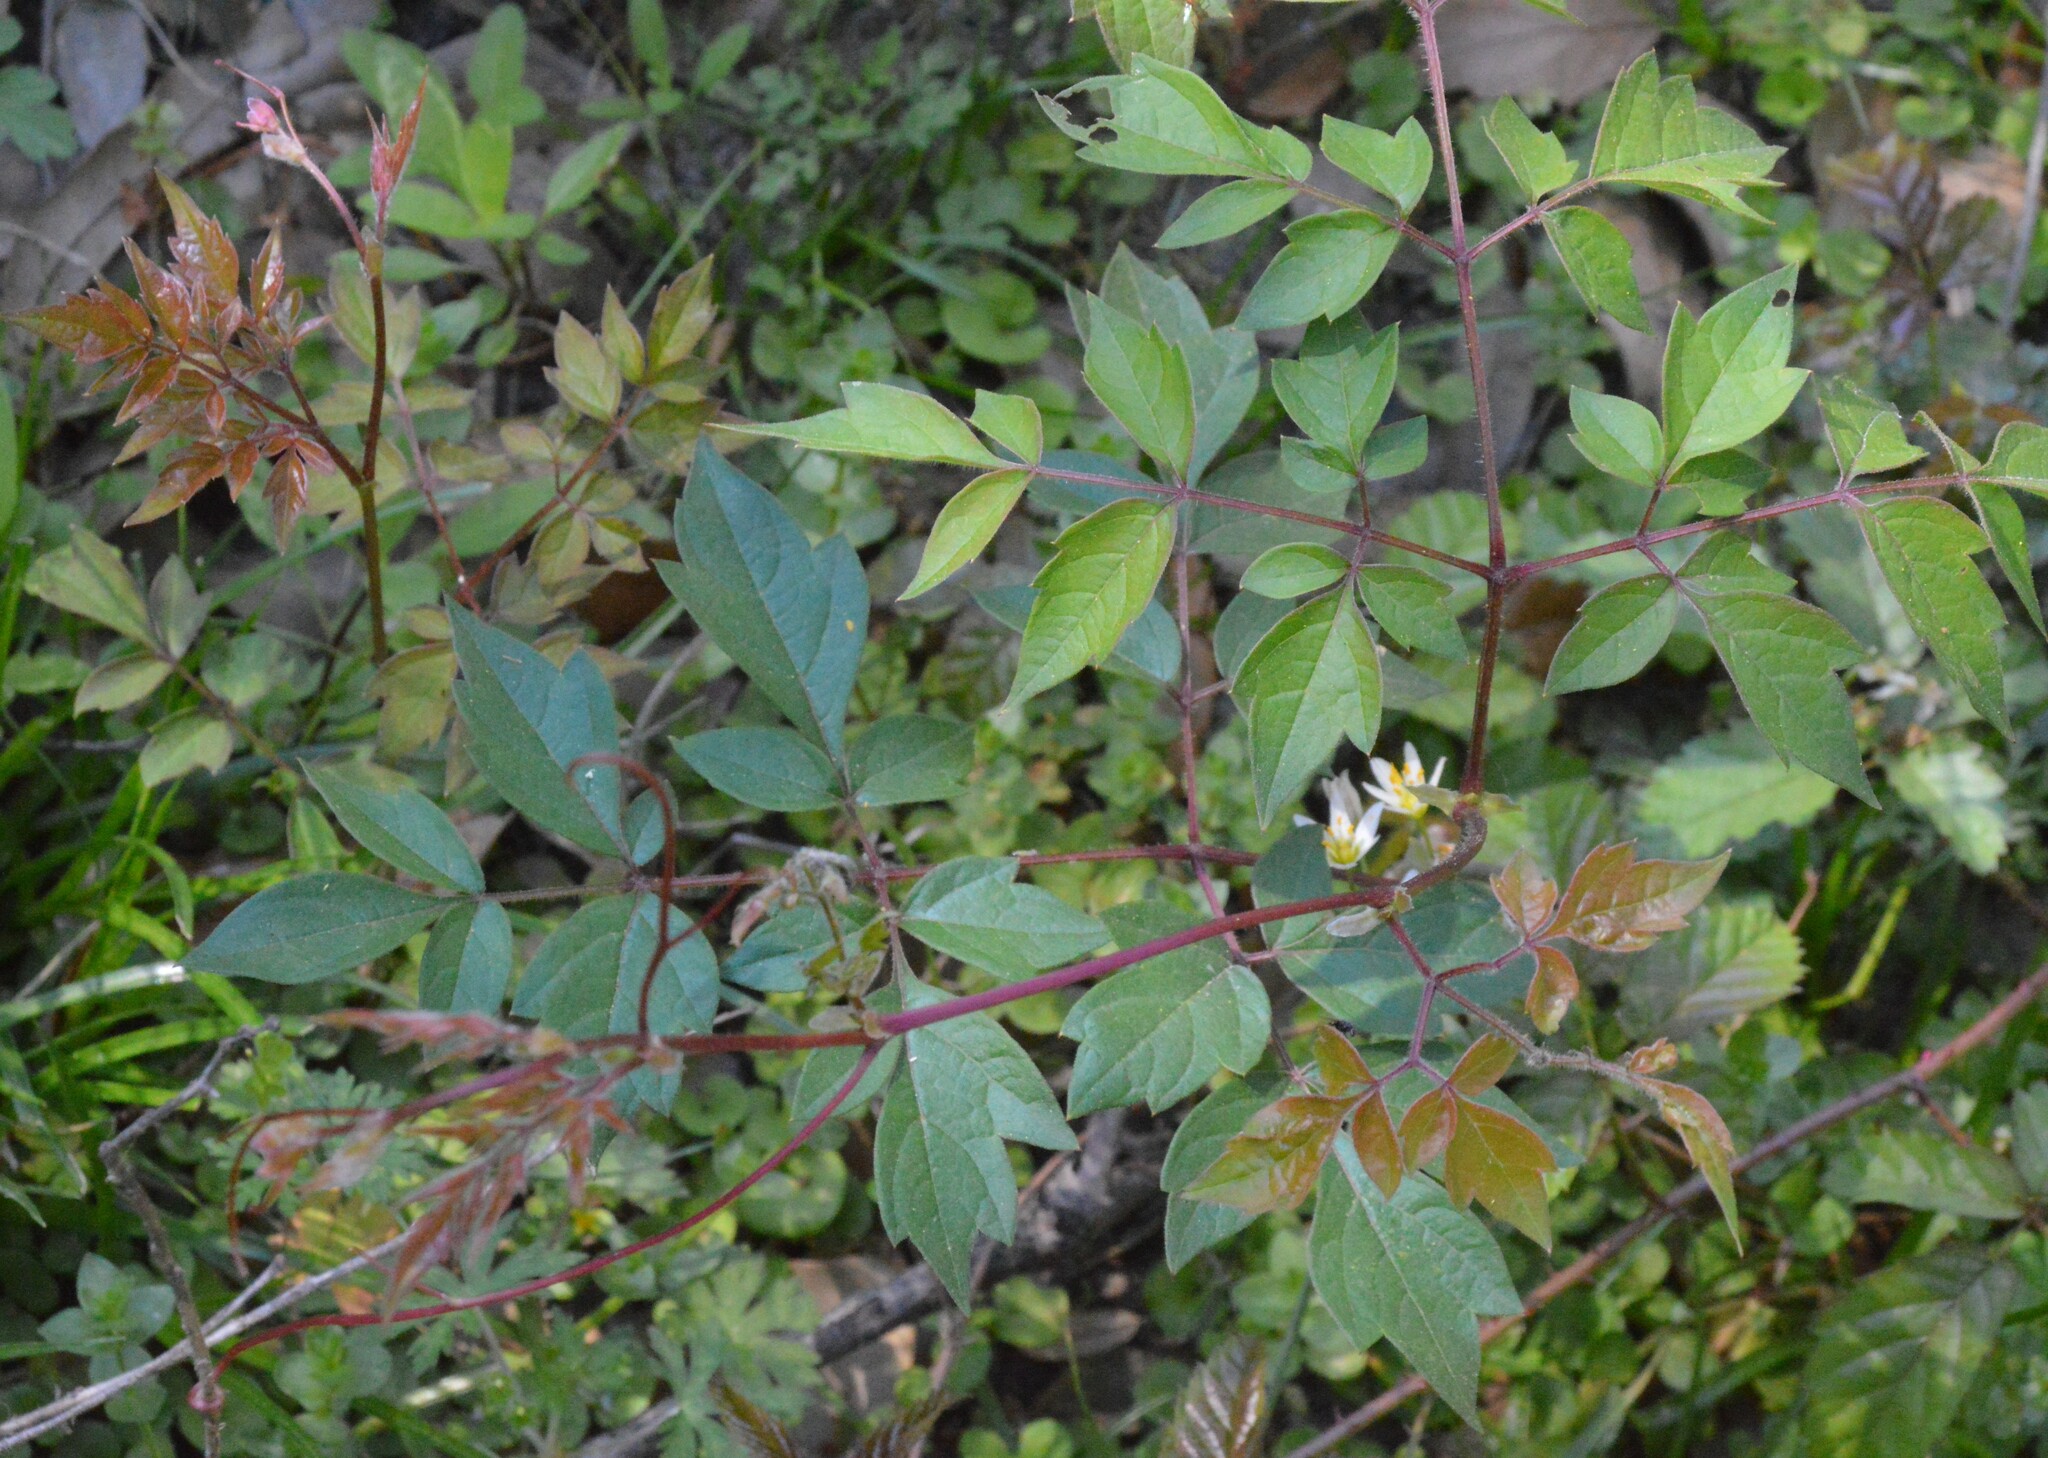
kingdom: Plantae
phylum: Tracheophyta
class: Magnoliopsida
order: Vitales
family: Vitaceae
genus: Nekemias
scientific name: Nekemias arborea
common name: Peppervine
